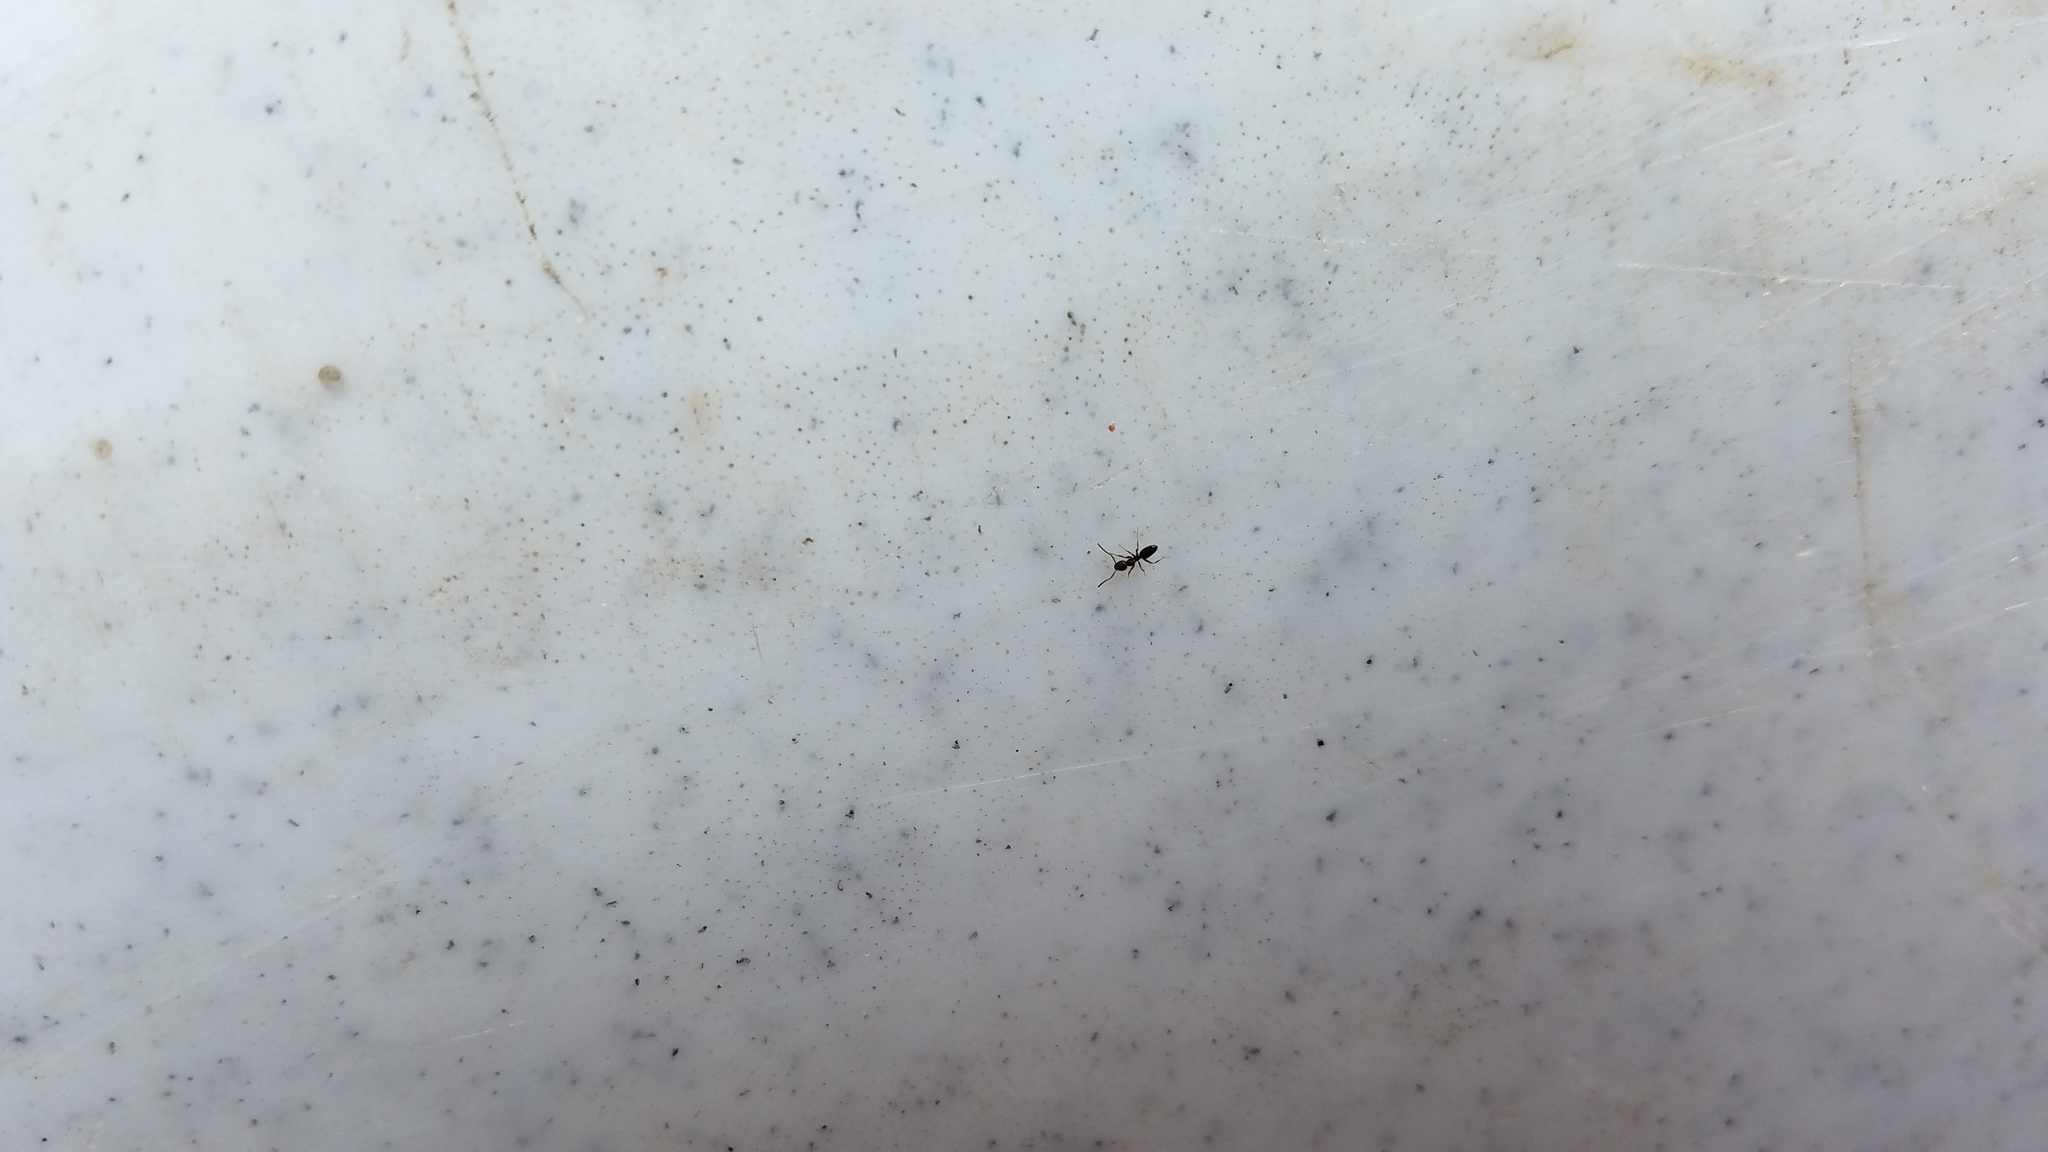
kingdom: Animalia
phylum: Arthropoda
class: Insecta
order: Hymenoptera
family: Formicidae
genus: Tapinoma
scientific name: Tapinoma sessile
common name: Odorous house ant
